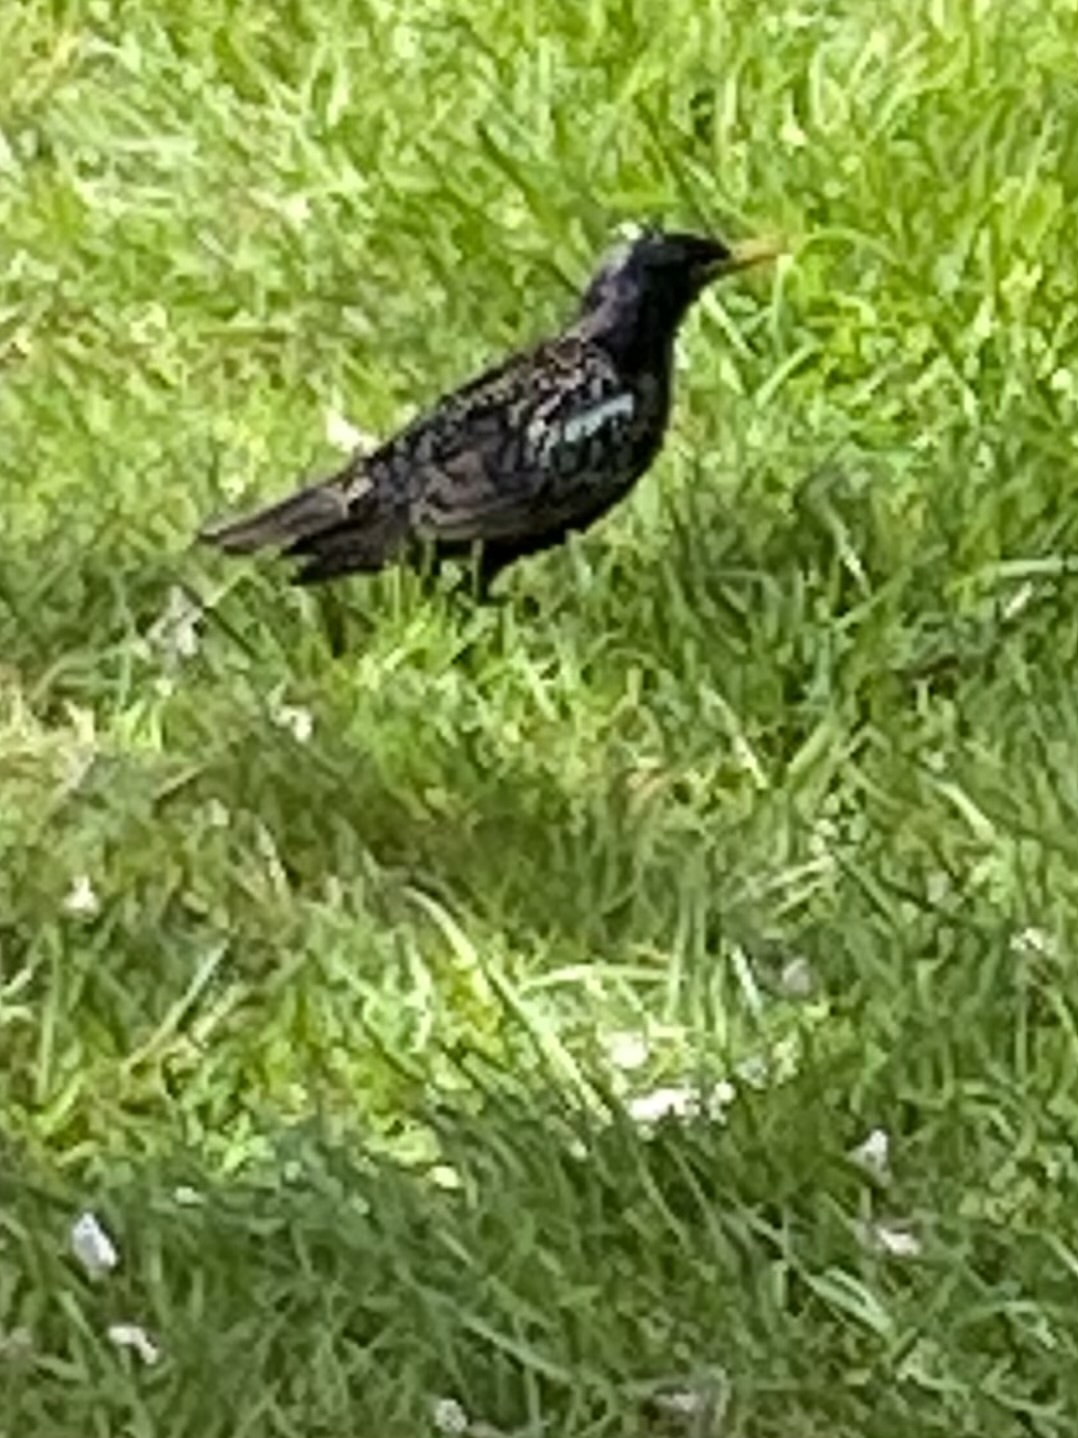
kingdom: Animalia
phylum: Chordata
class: Aves
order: Passeriformes
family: Sturnidae
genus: Sturnus
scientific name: Sturnus vulgaris
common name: Common starling
